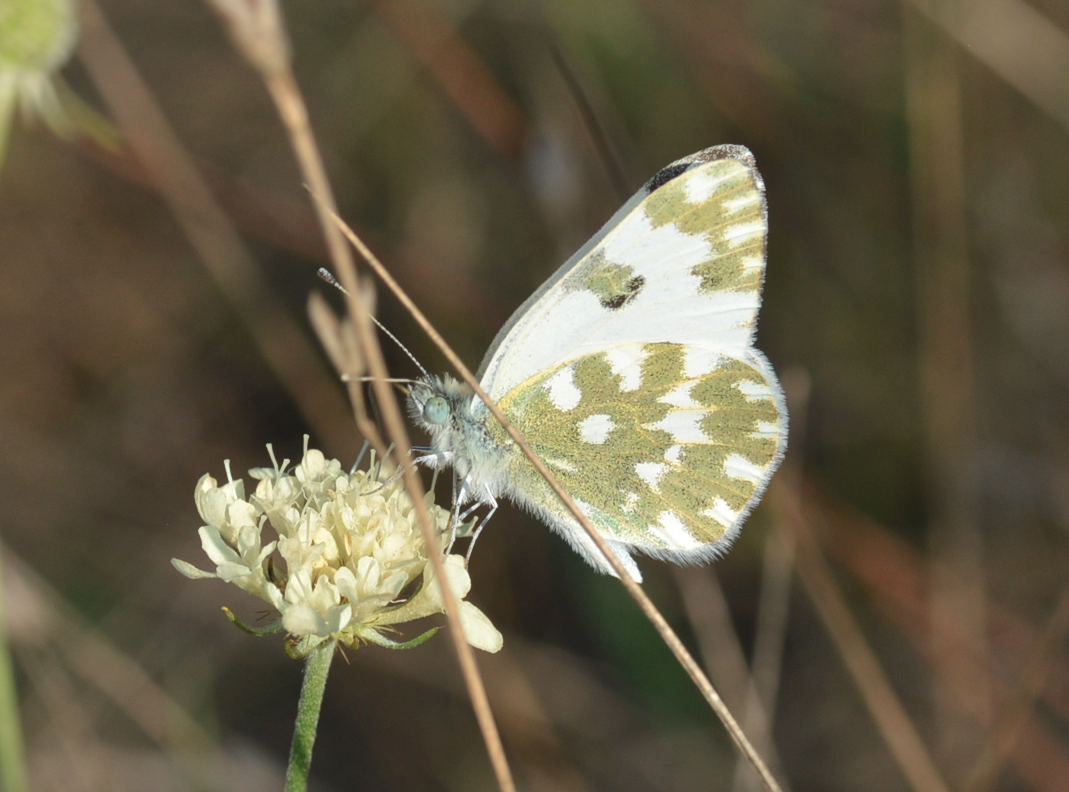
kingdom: Animalia
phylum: Arthropoda
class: Insecta
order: Lepidoptera
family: Pieridae
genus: Pontia
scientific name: Pontia edusa
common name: Eastern bath white
